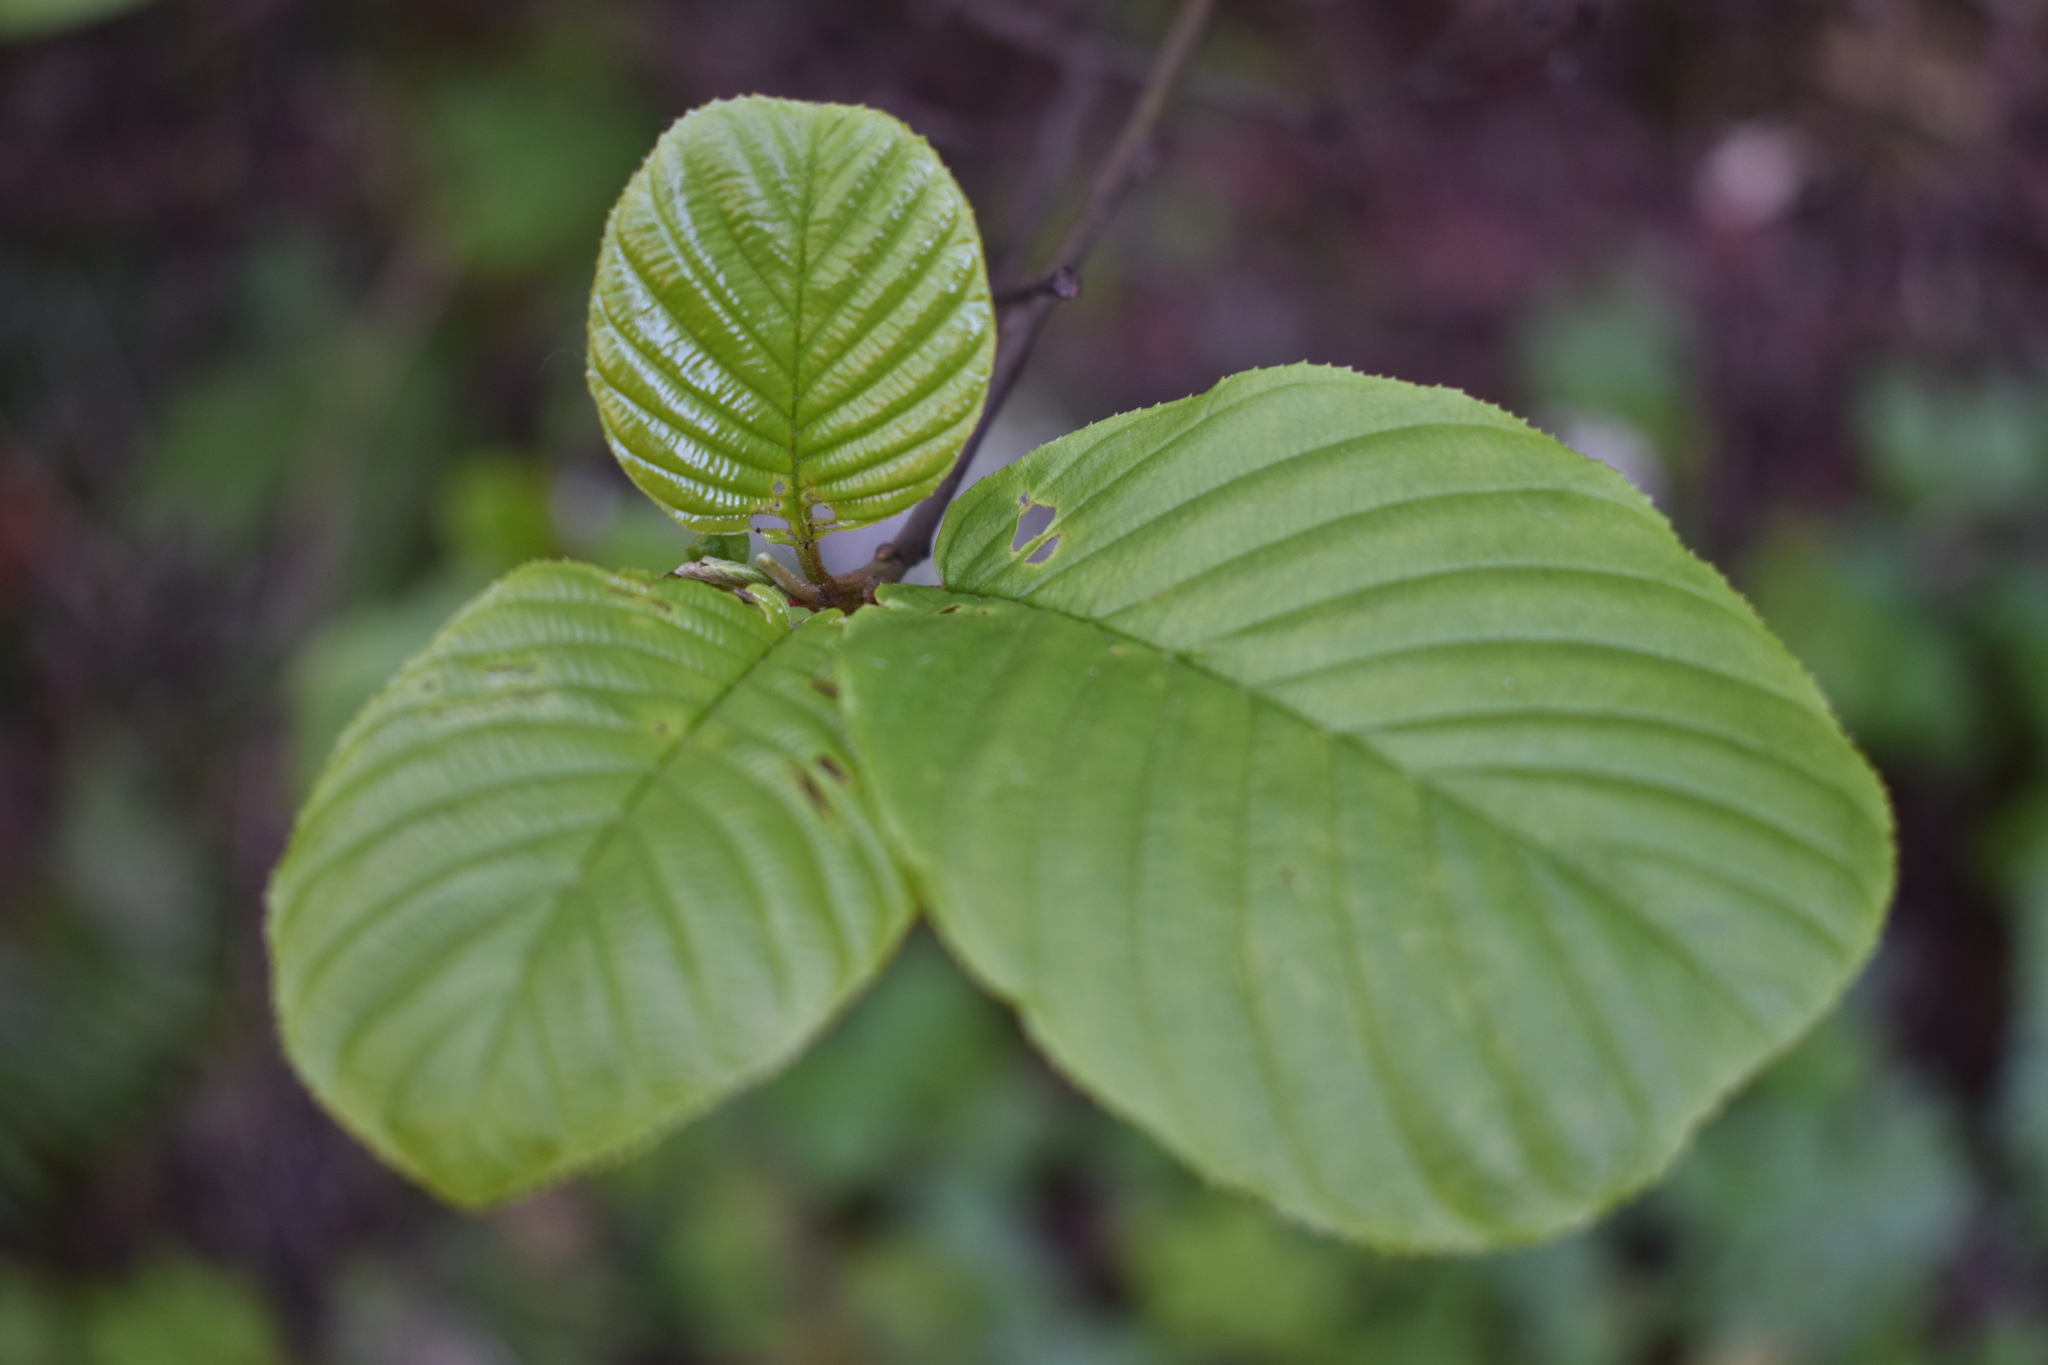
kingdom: Plantae
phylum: Tracheophyta
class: Magnoliopsida
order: Rosales
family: Rhamnaceae
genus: Frangula
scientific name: Frangula purshiana
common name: Cascara buckthorn
